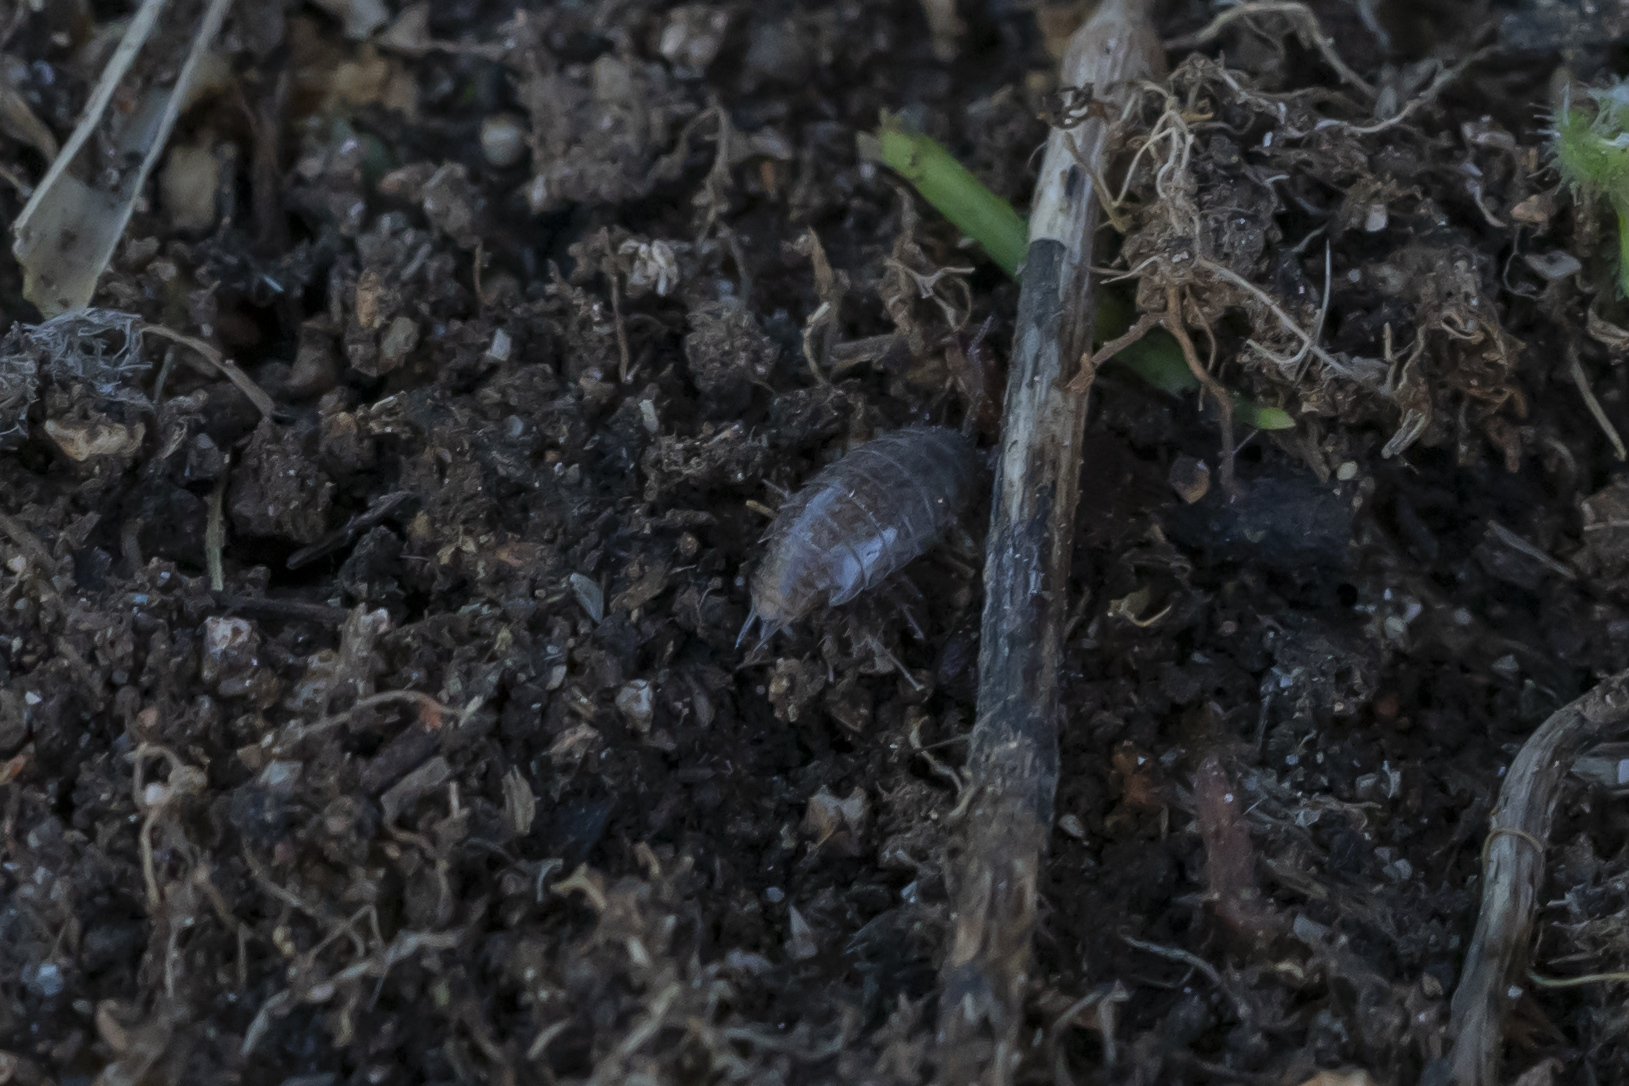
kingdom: Animalia
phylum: Arthropoda
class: Malacostraca
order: Isopoda
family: Philosciidae
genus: Chaetophiloscia
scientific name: Chaetophiloscia
